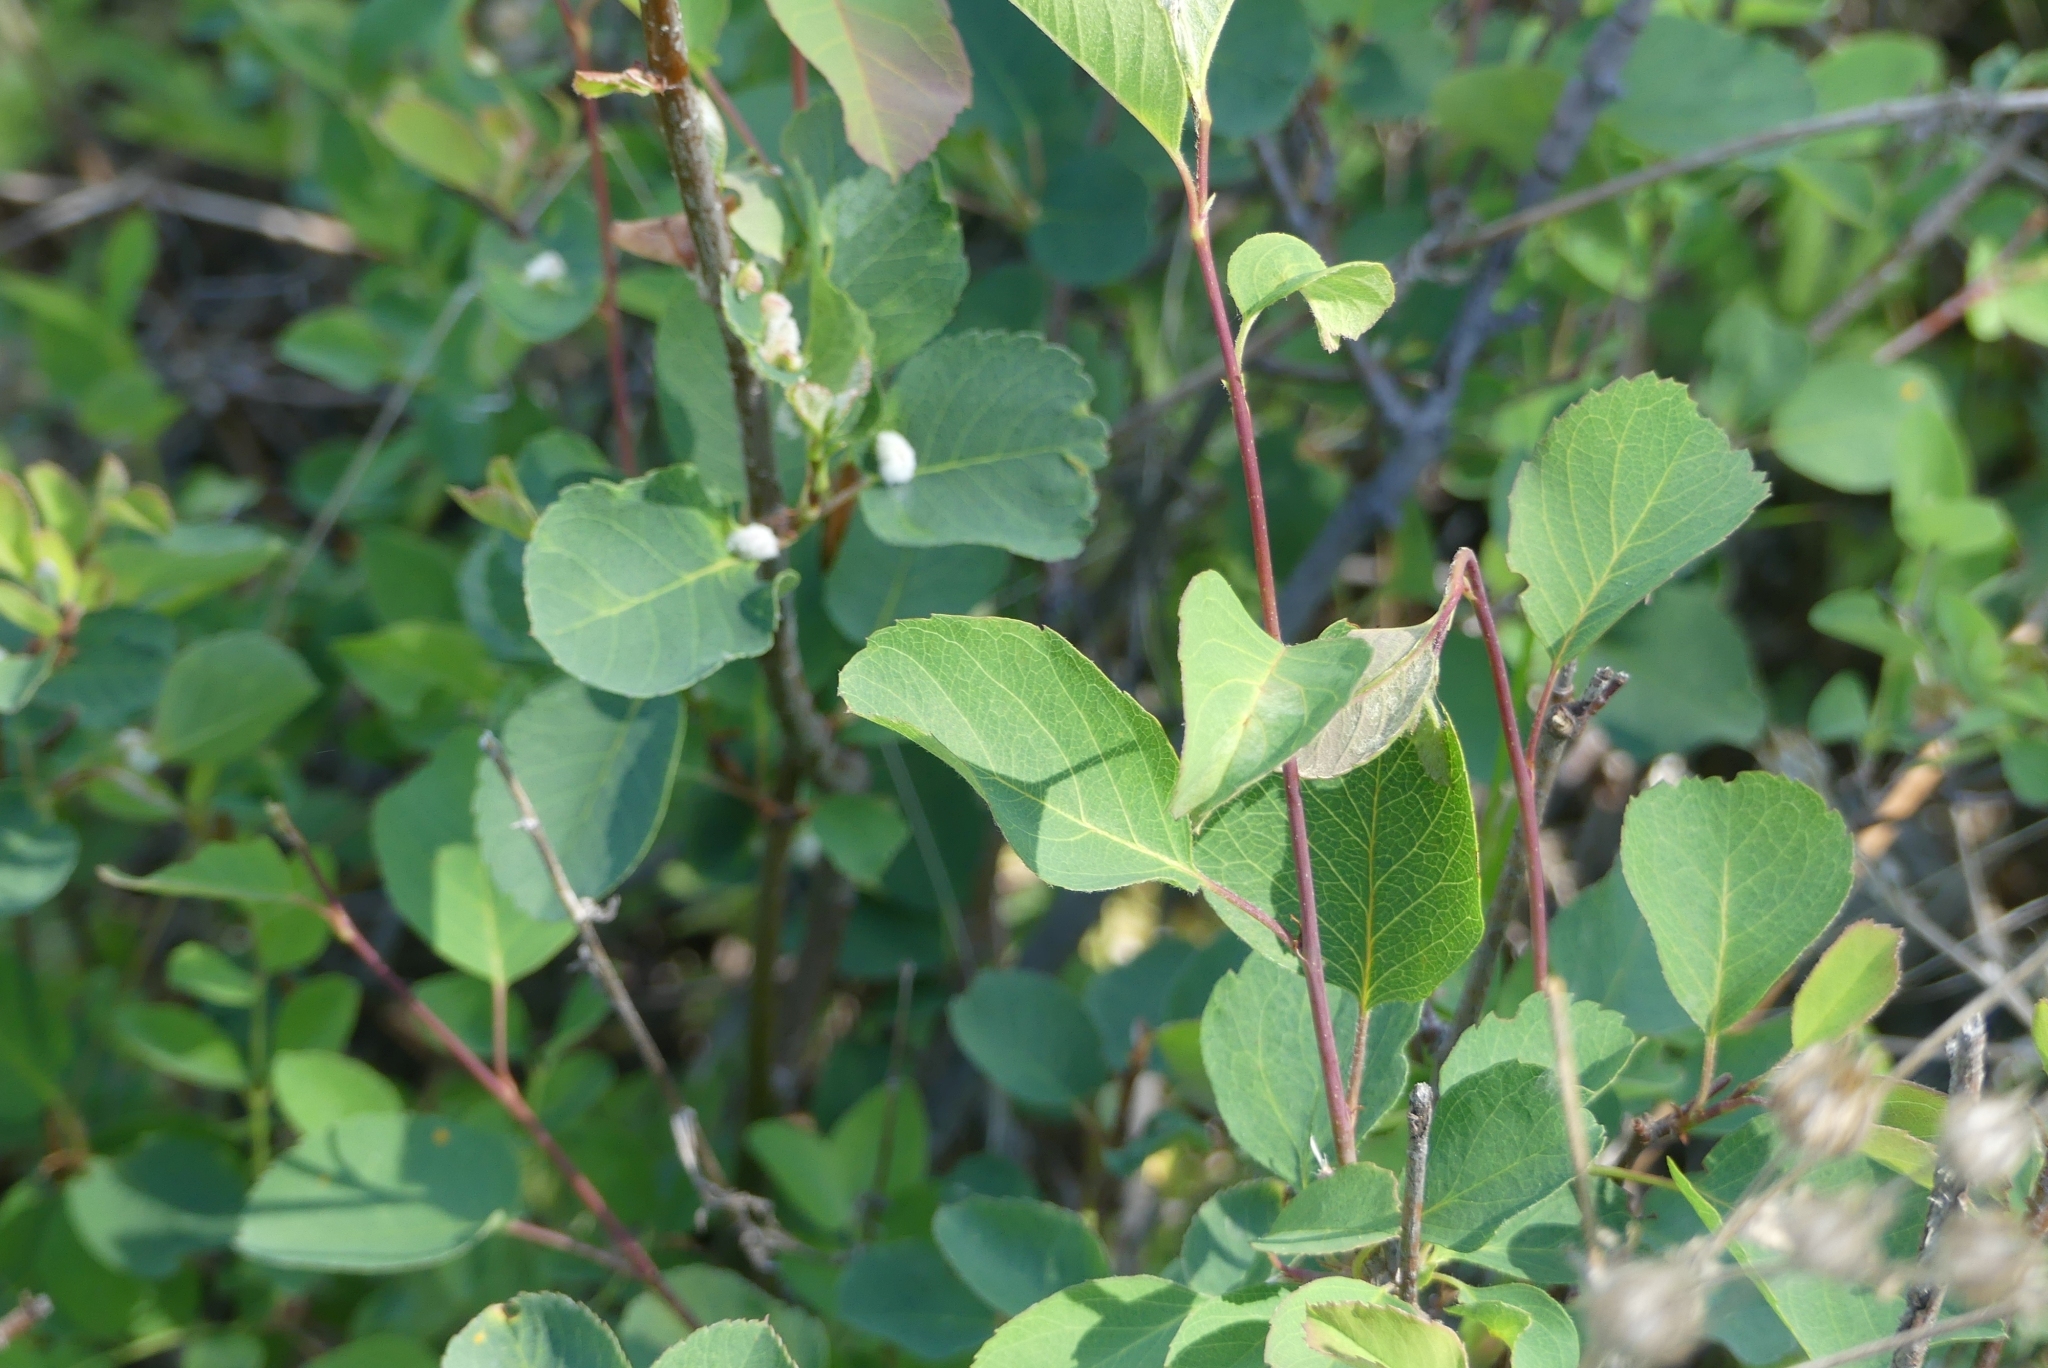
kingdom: Plantae
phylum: Tracheophyta
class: Magnoliopsida
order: Rosales
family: Rosaceae
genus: Amelanchier
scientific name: Amelanchier alnifolia
